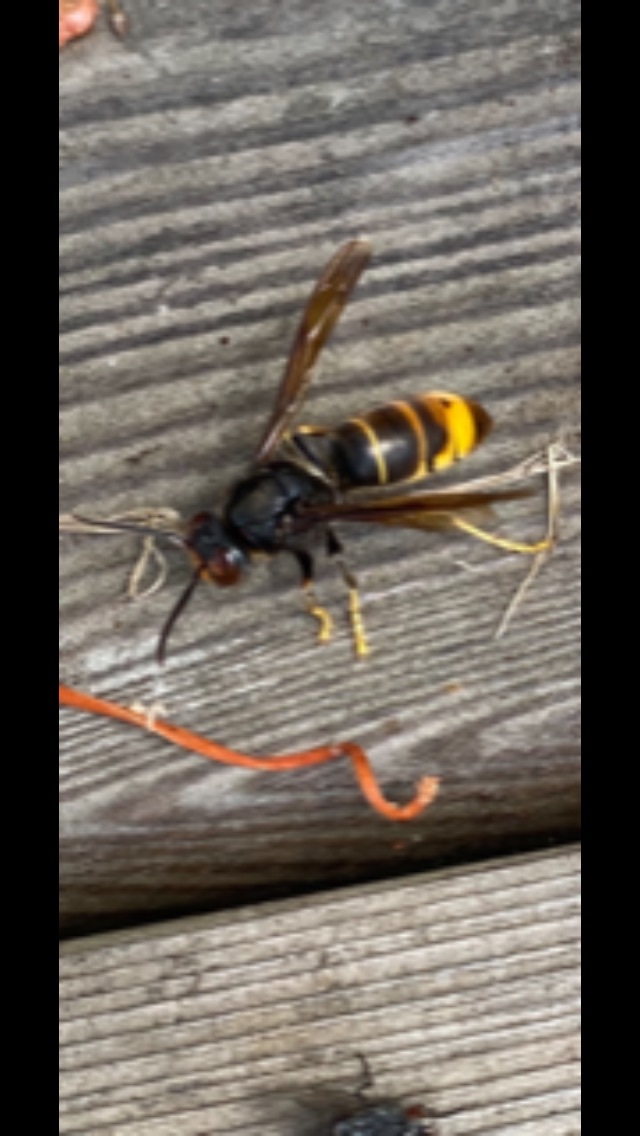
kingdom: Animalia
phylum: Arthropoda
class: Insecta
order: Hymenoptera
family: Vespidae
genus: Vespa
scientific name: Vespa velutina
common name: Asian hornet
